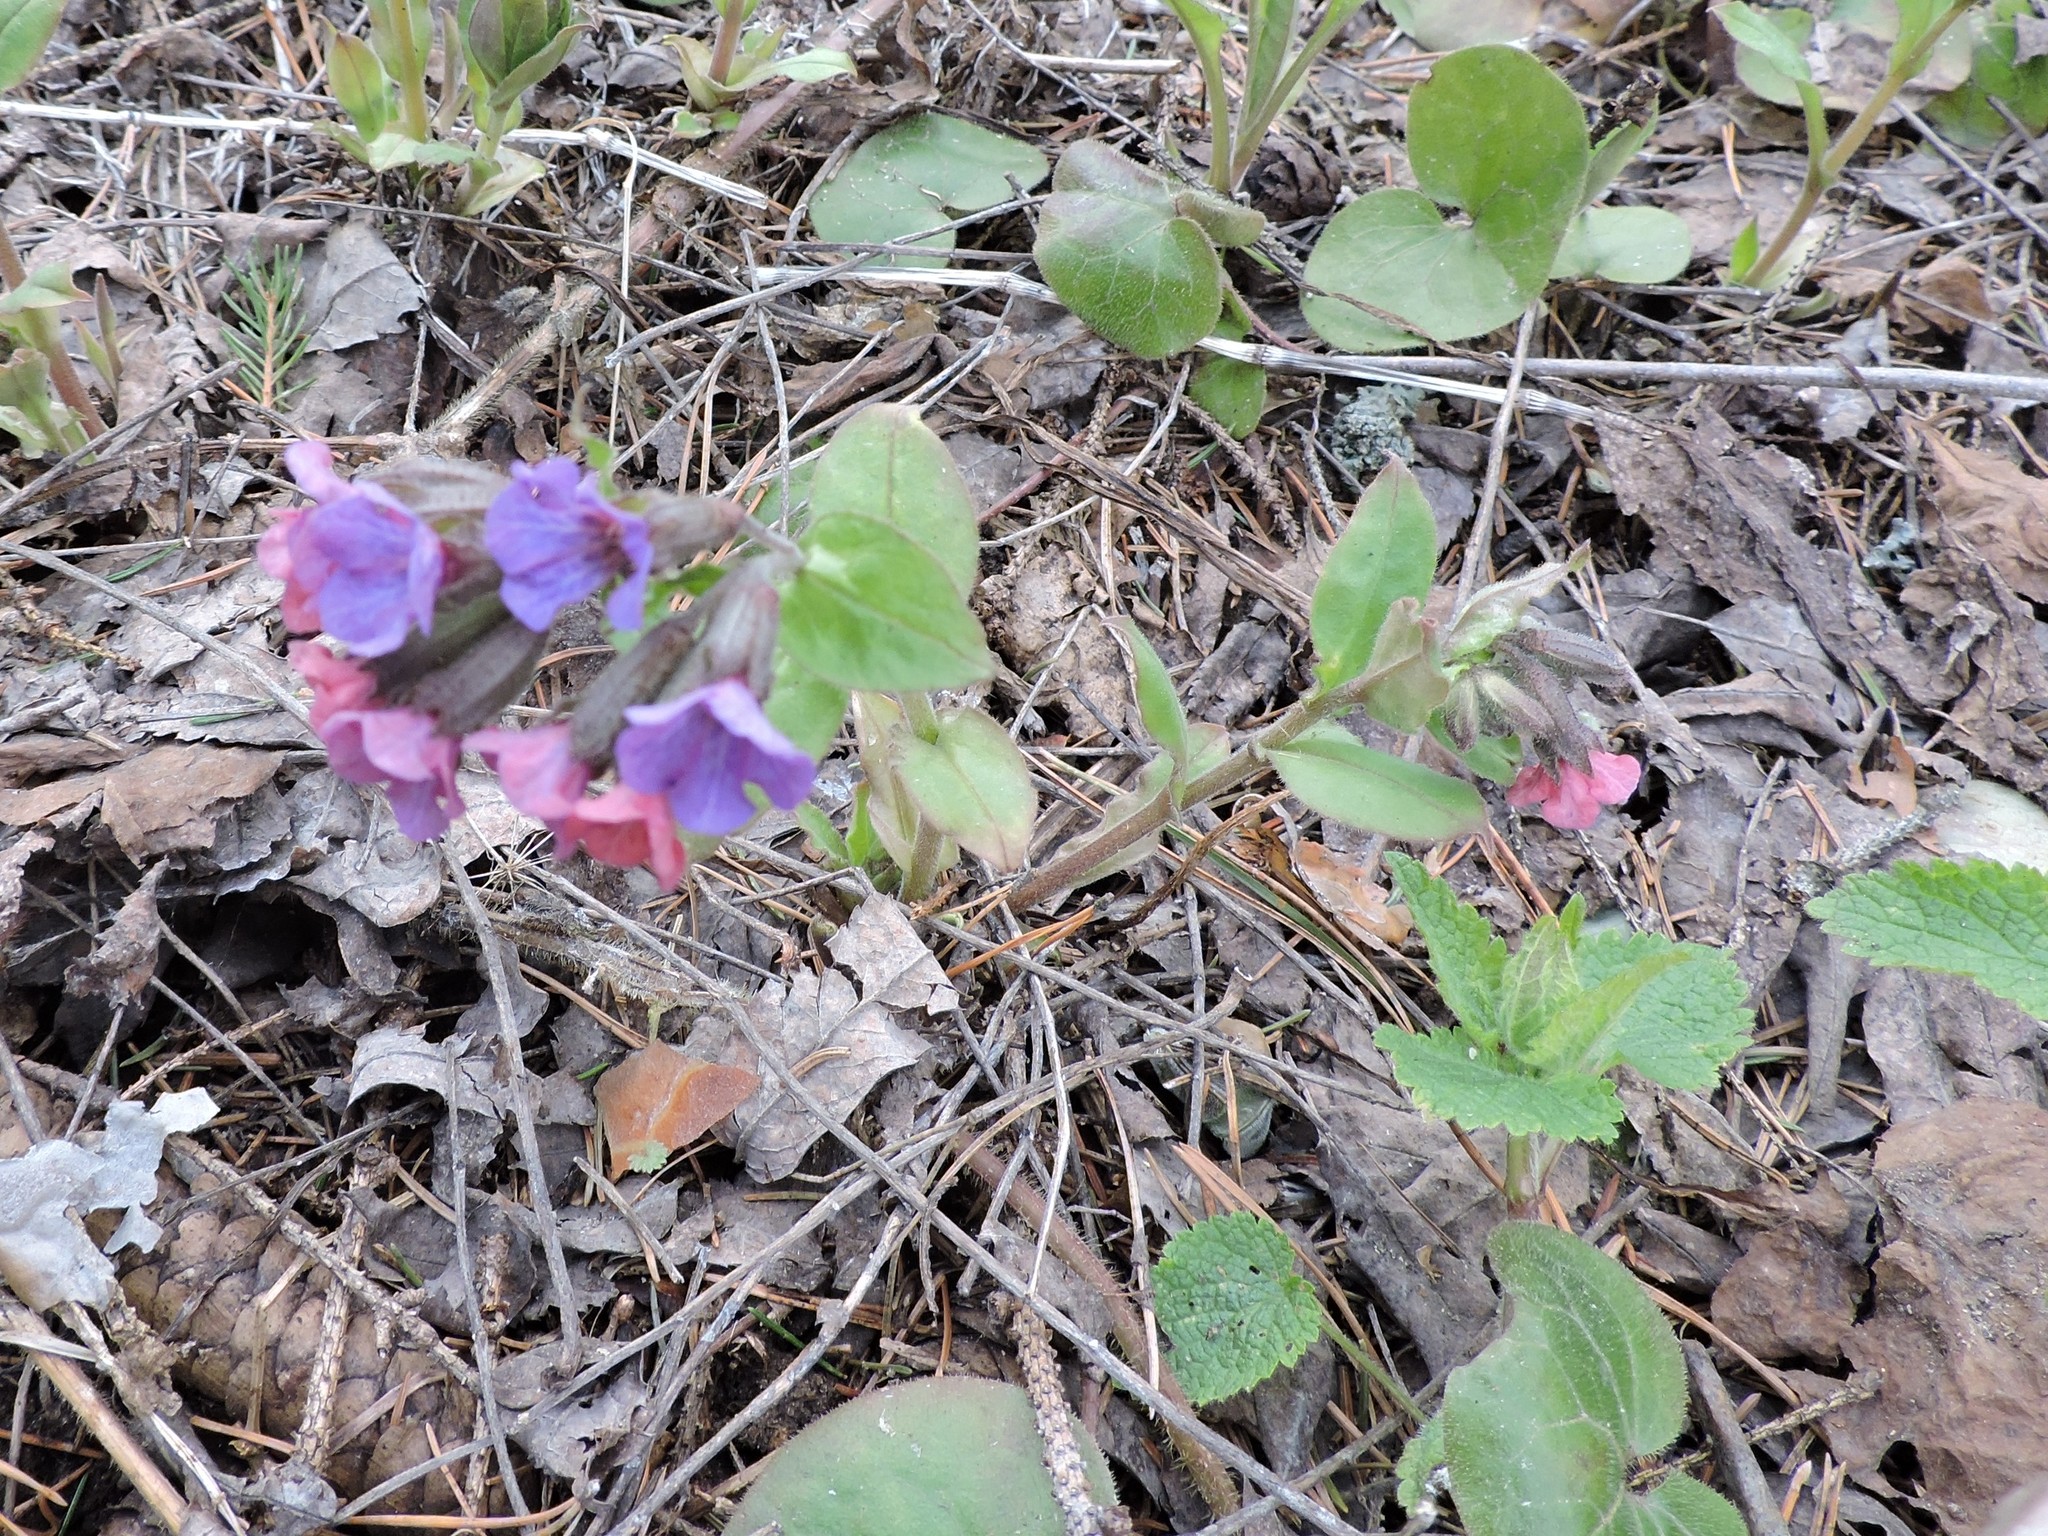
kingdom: Plantae
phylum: Tracheophyta
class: Magnoliopsida
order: Boraginales
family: Boraginaceae
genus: Pulmonaria
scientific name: Pulmonaria obscura
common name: Suffolk lungwort
